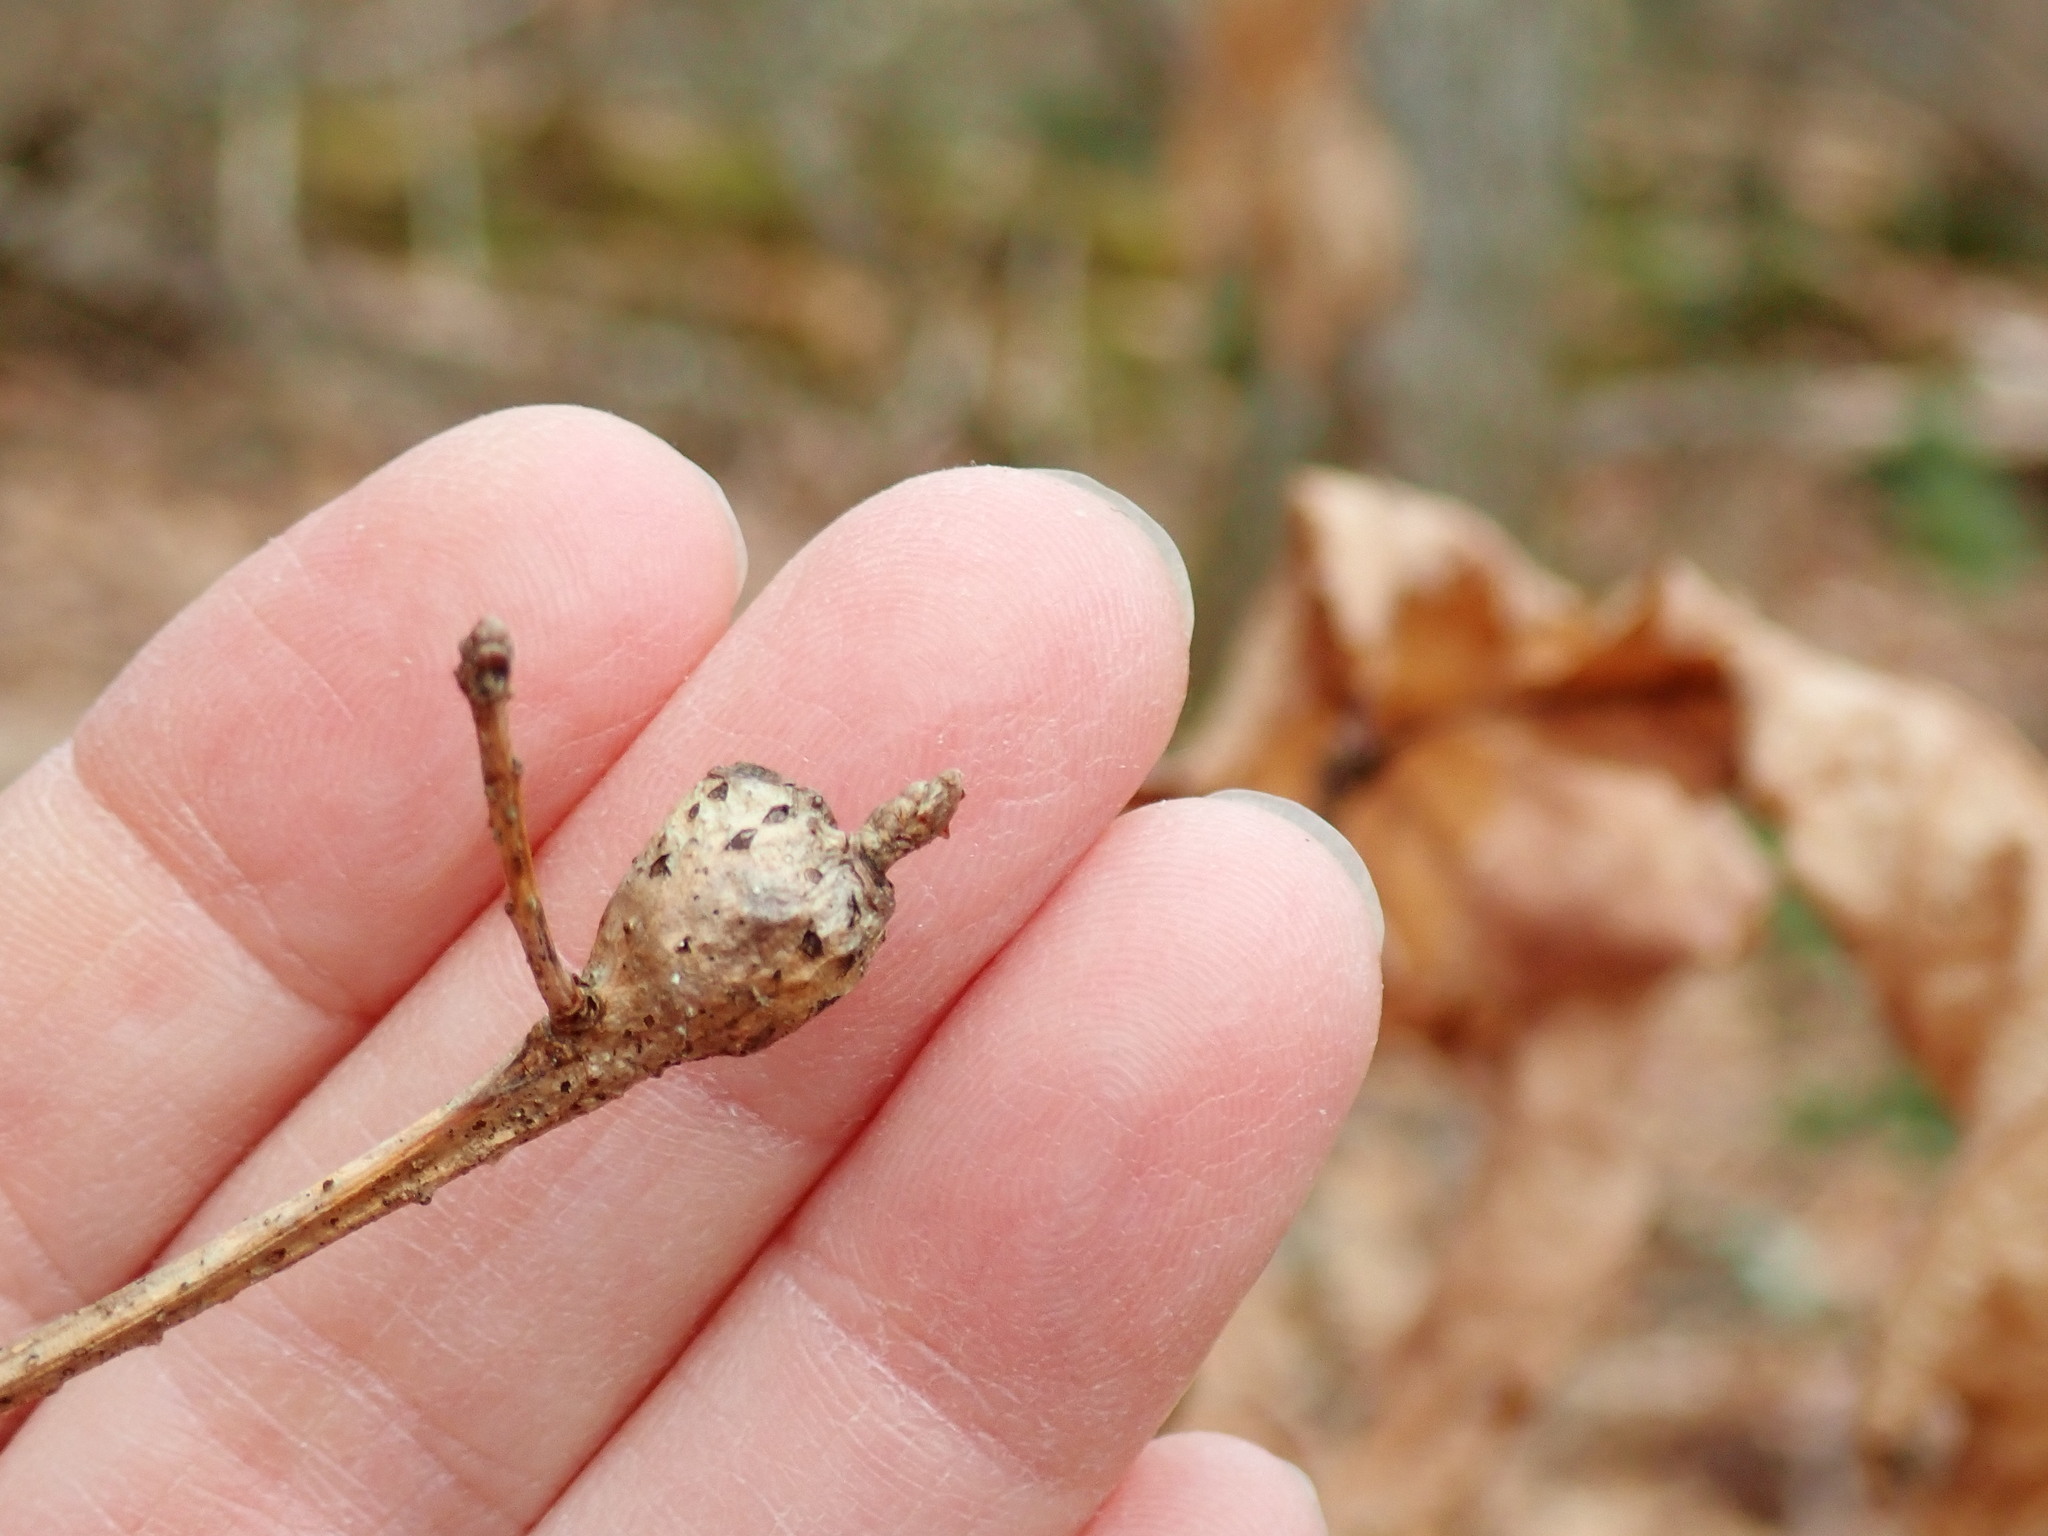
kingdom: Animalia
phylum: Arthropoda
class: Insecta
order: Hymenoptera
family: Cynipidae
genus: Callirhytis
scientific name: Callirhytis clavula
